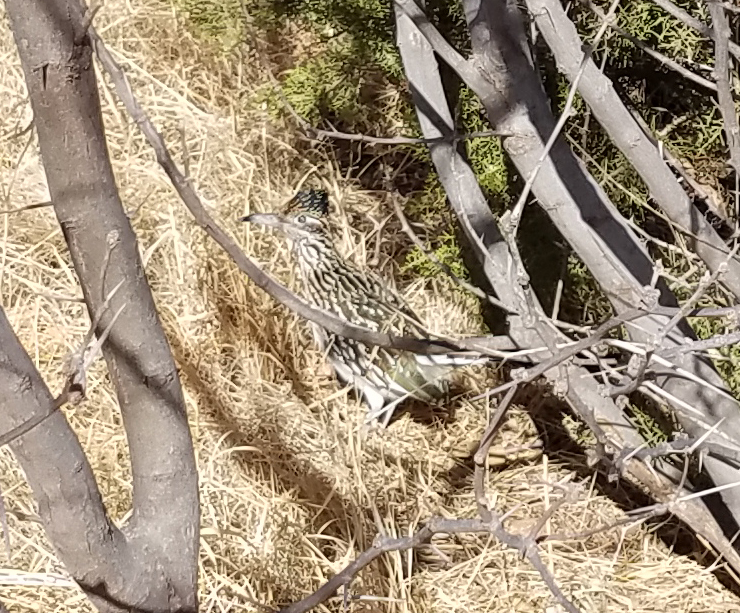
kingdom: Animalia
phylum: Chordata
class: Aves
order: Cuculiformes
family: Cuculidae
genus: Geococcyx
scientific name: Geococcyx californianus
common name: Greater roadrunner
